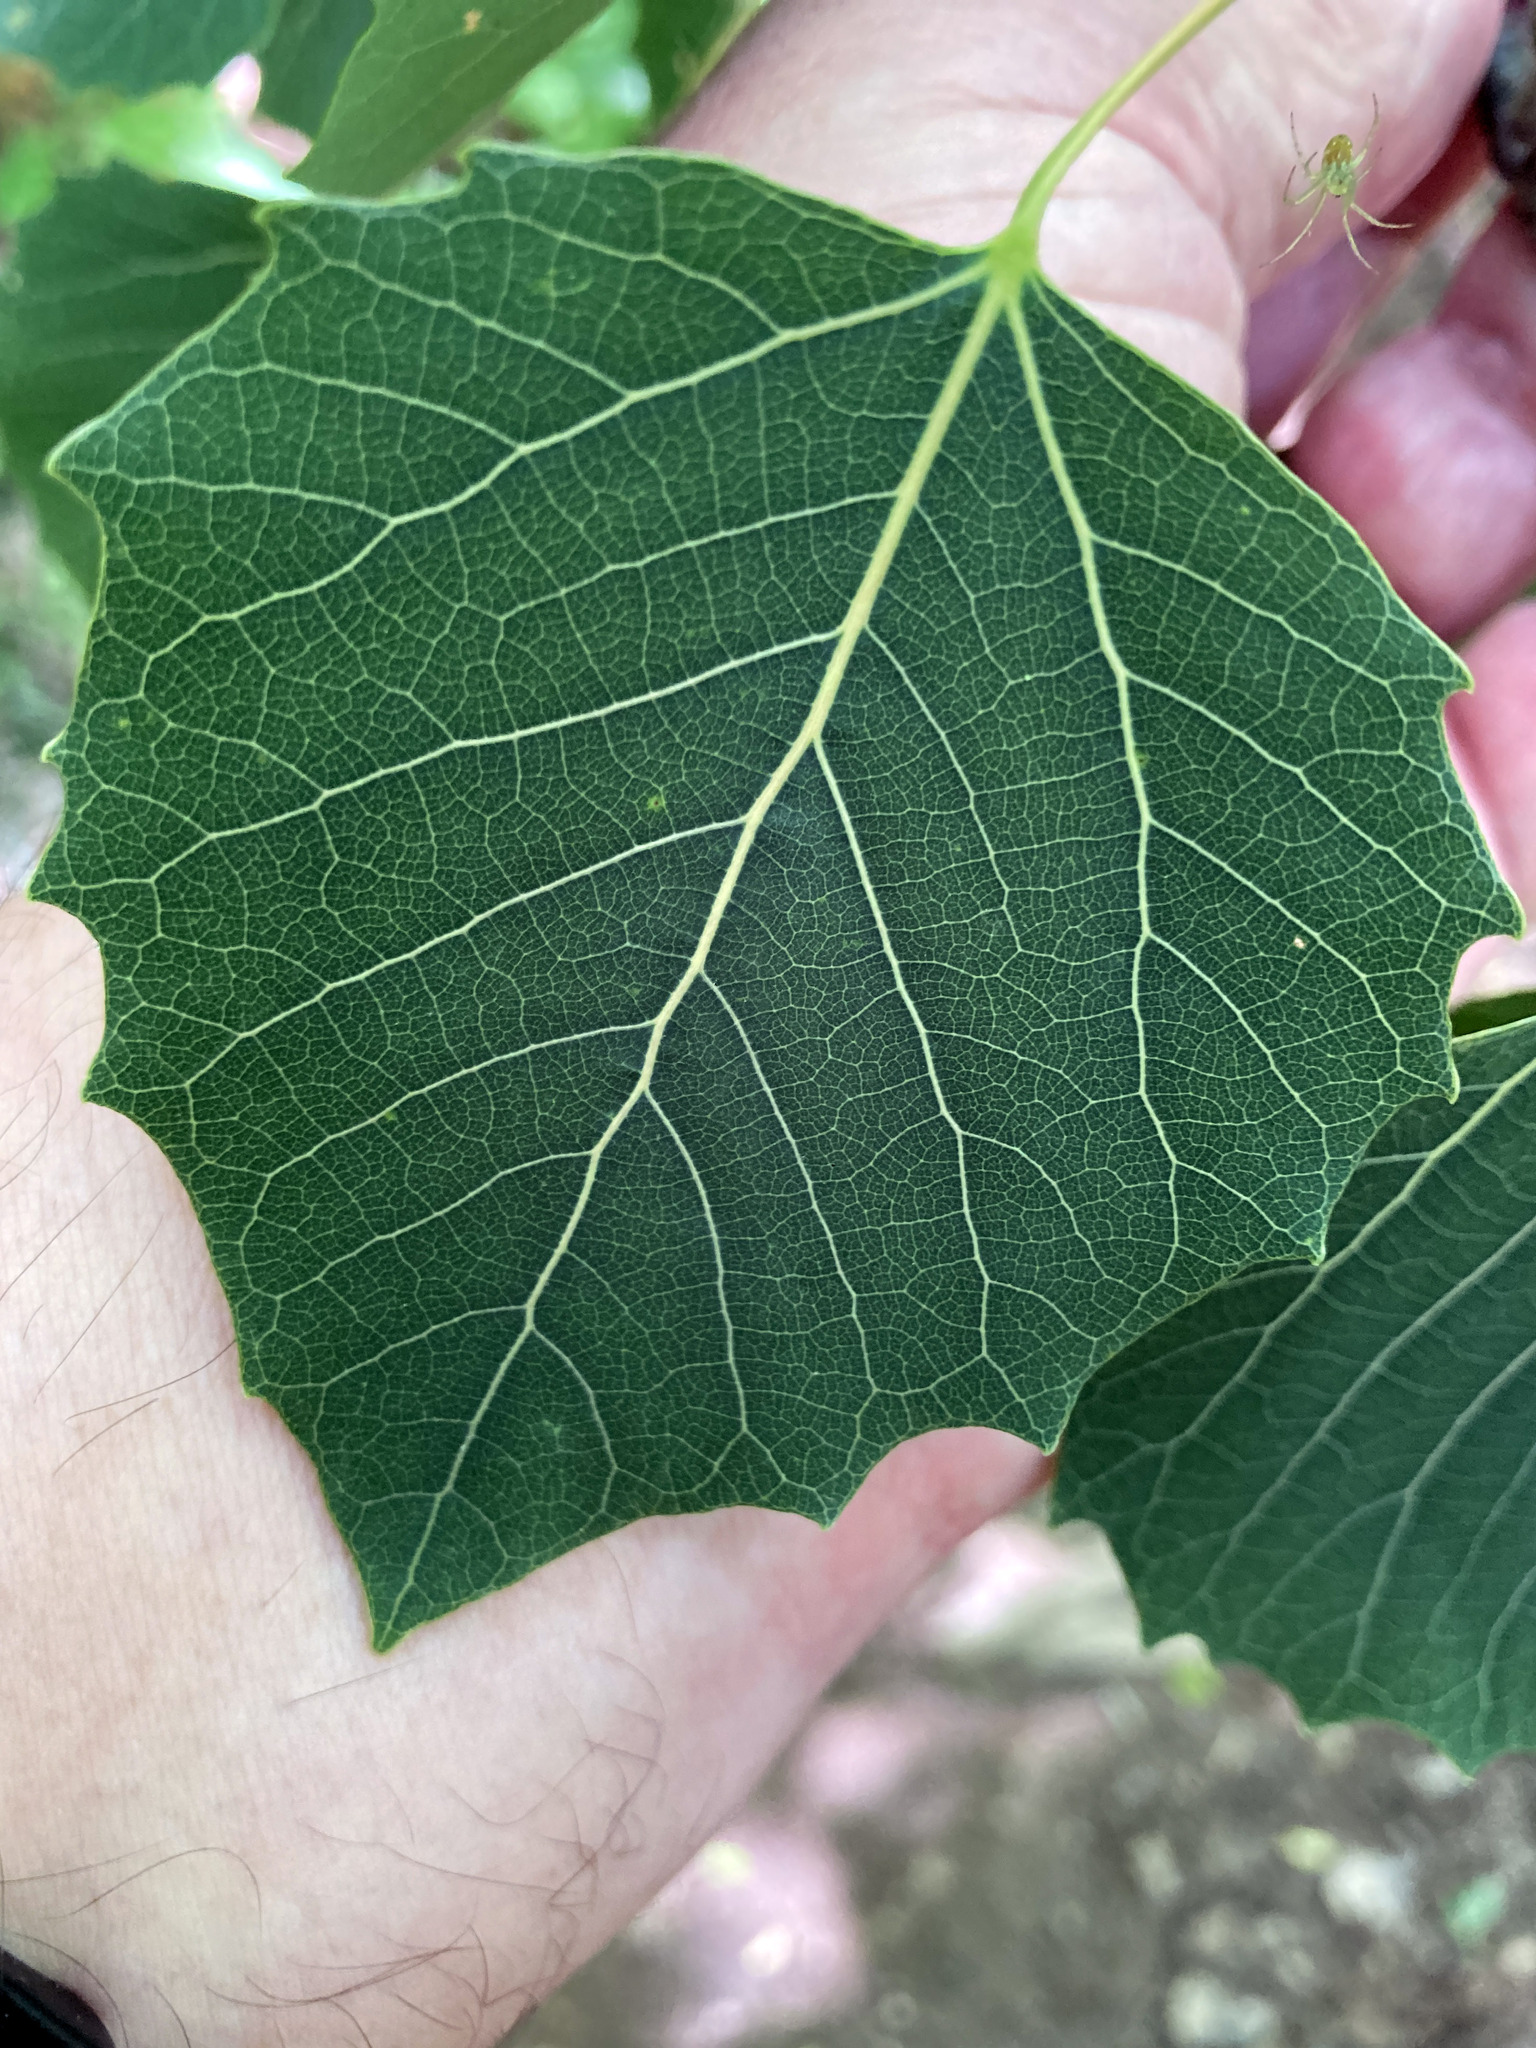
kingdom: Plantae
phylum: Tracheophyta
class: Magnoliopsida
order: Malpighiales
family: Salicaceae
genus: Populus
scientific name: Populus grandidentata
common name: Bigtooth aspen
